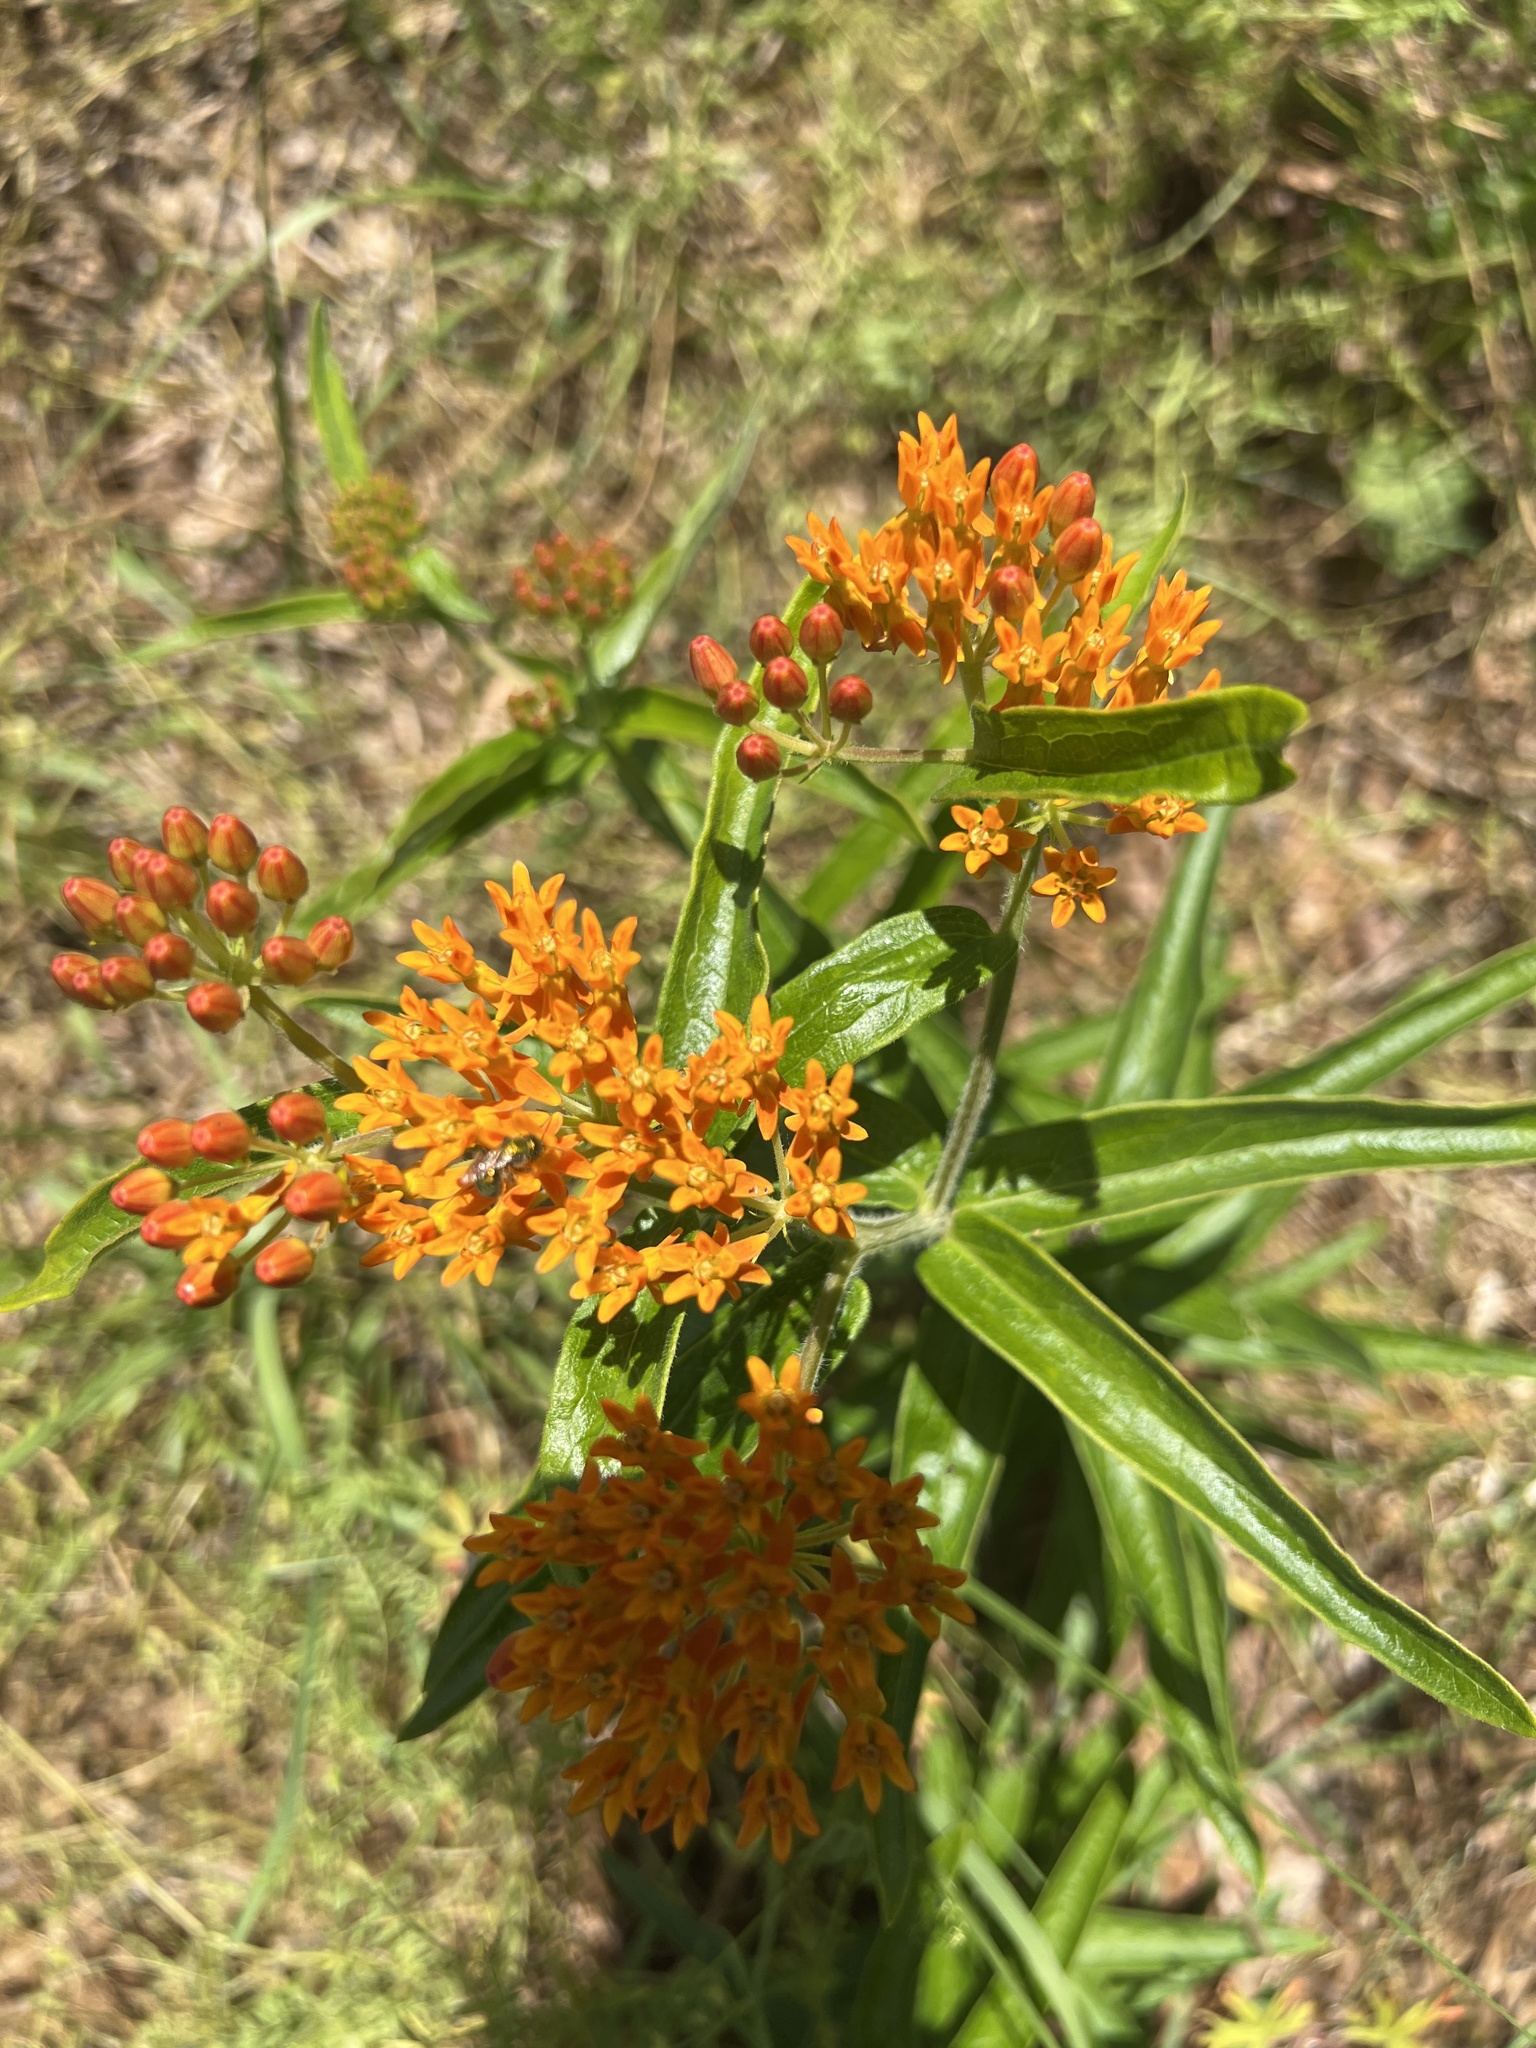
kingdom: Plantae
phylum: Tracheophyta
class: Magnoliopsida
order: Gentianales
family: Apocynaceae
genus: Asclepias
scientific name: Asclepias tuberosa
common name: Butterfly milkweed
